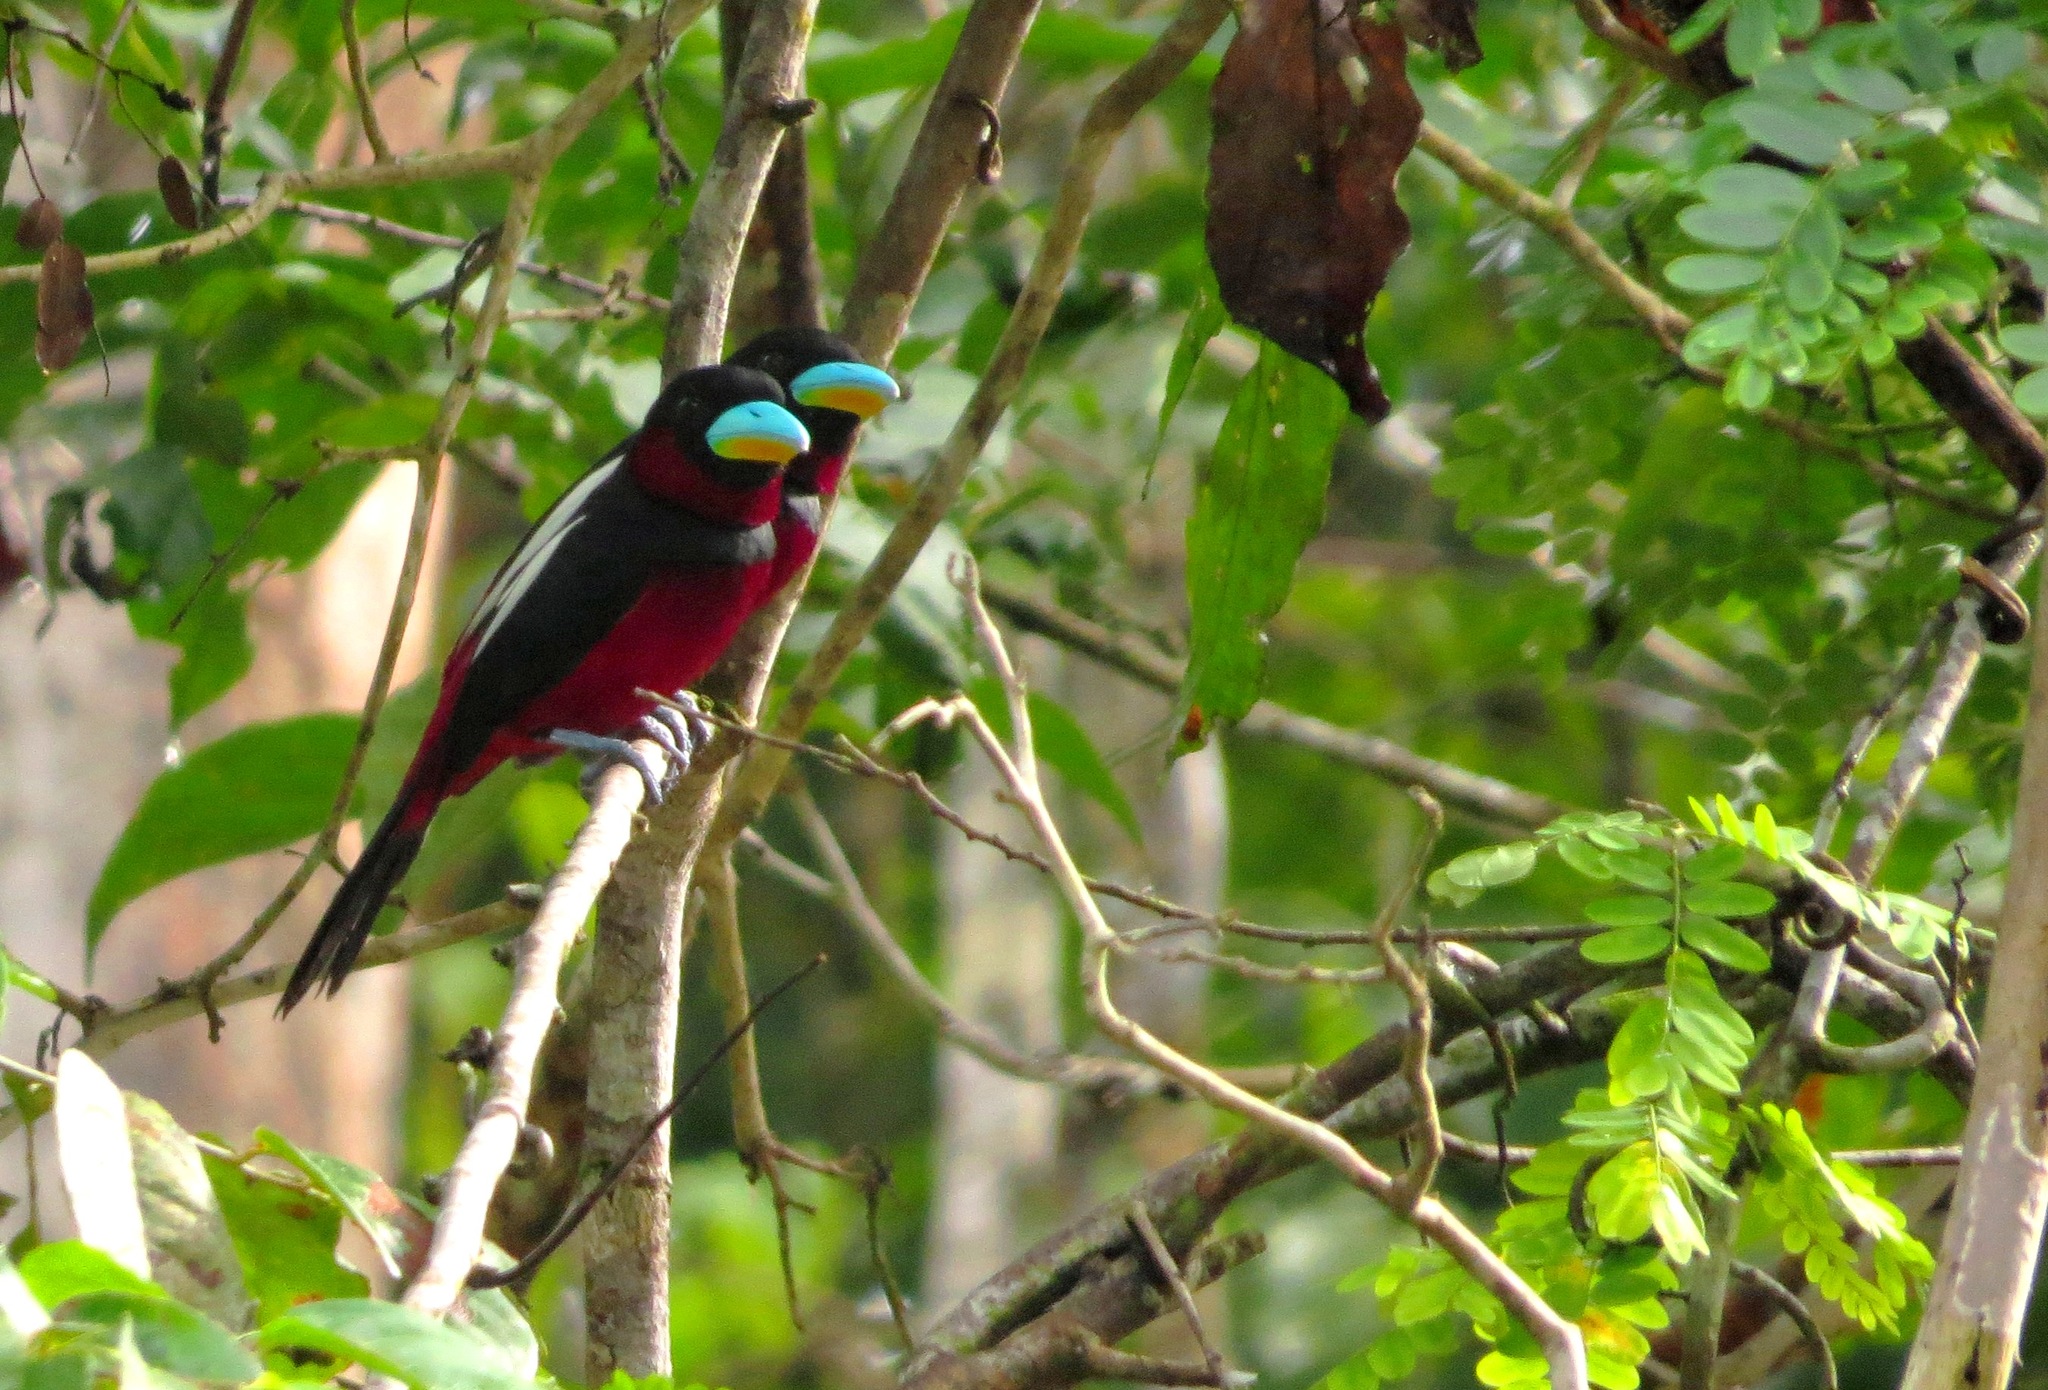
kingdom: Animalia
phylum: Chordata
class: Aves
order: Passeriformes
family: Eurylaimidae
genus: Cymbirhynchus
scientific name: Cymbirhynchus macrorhynchos
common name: Black-and-red broadbill
